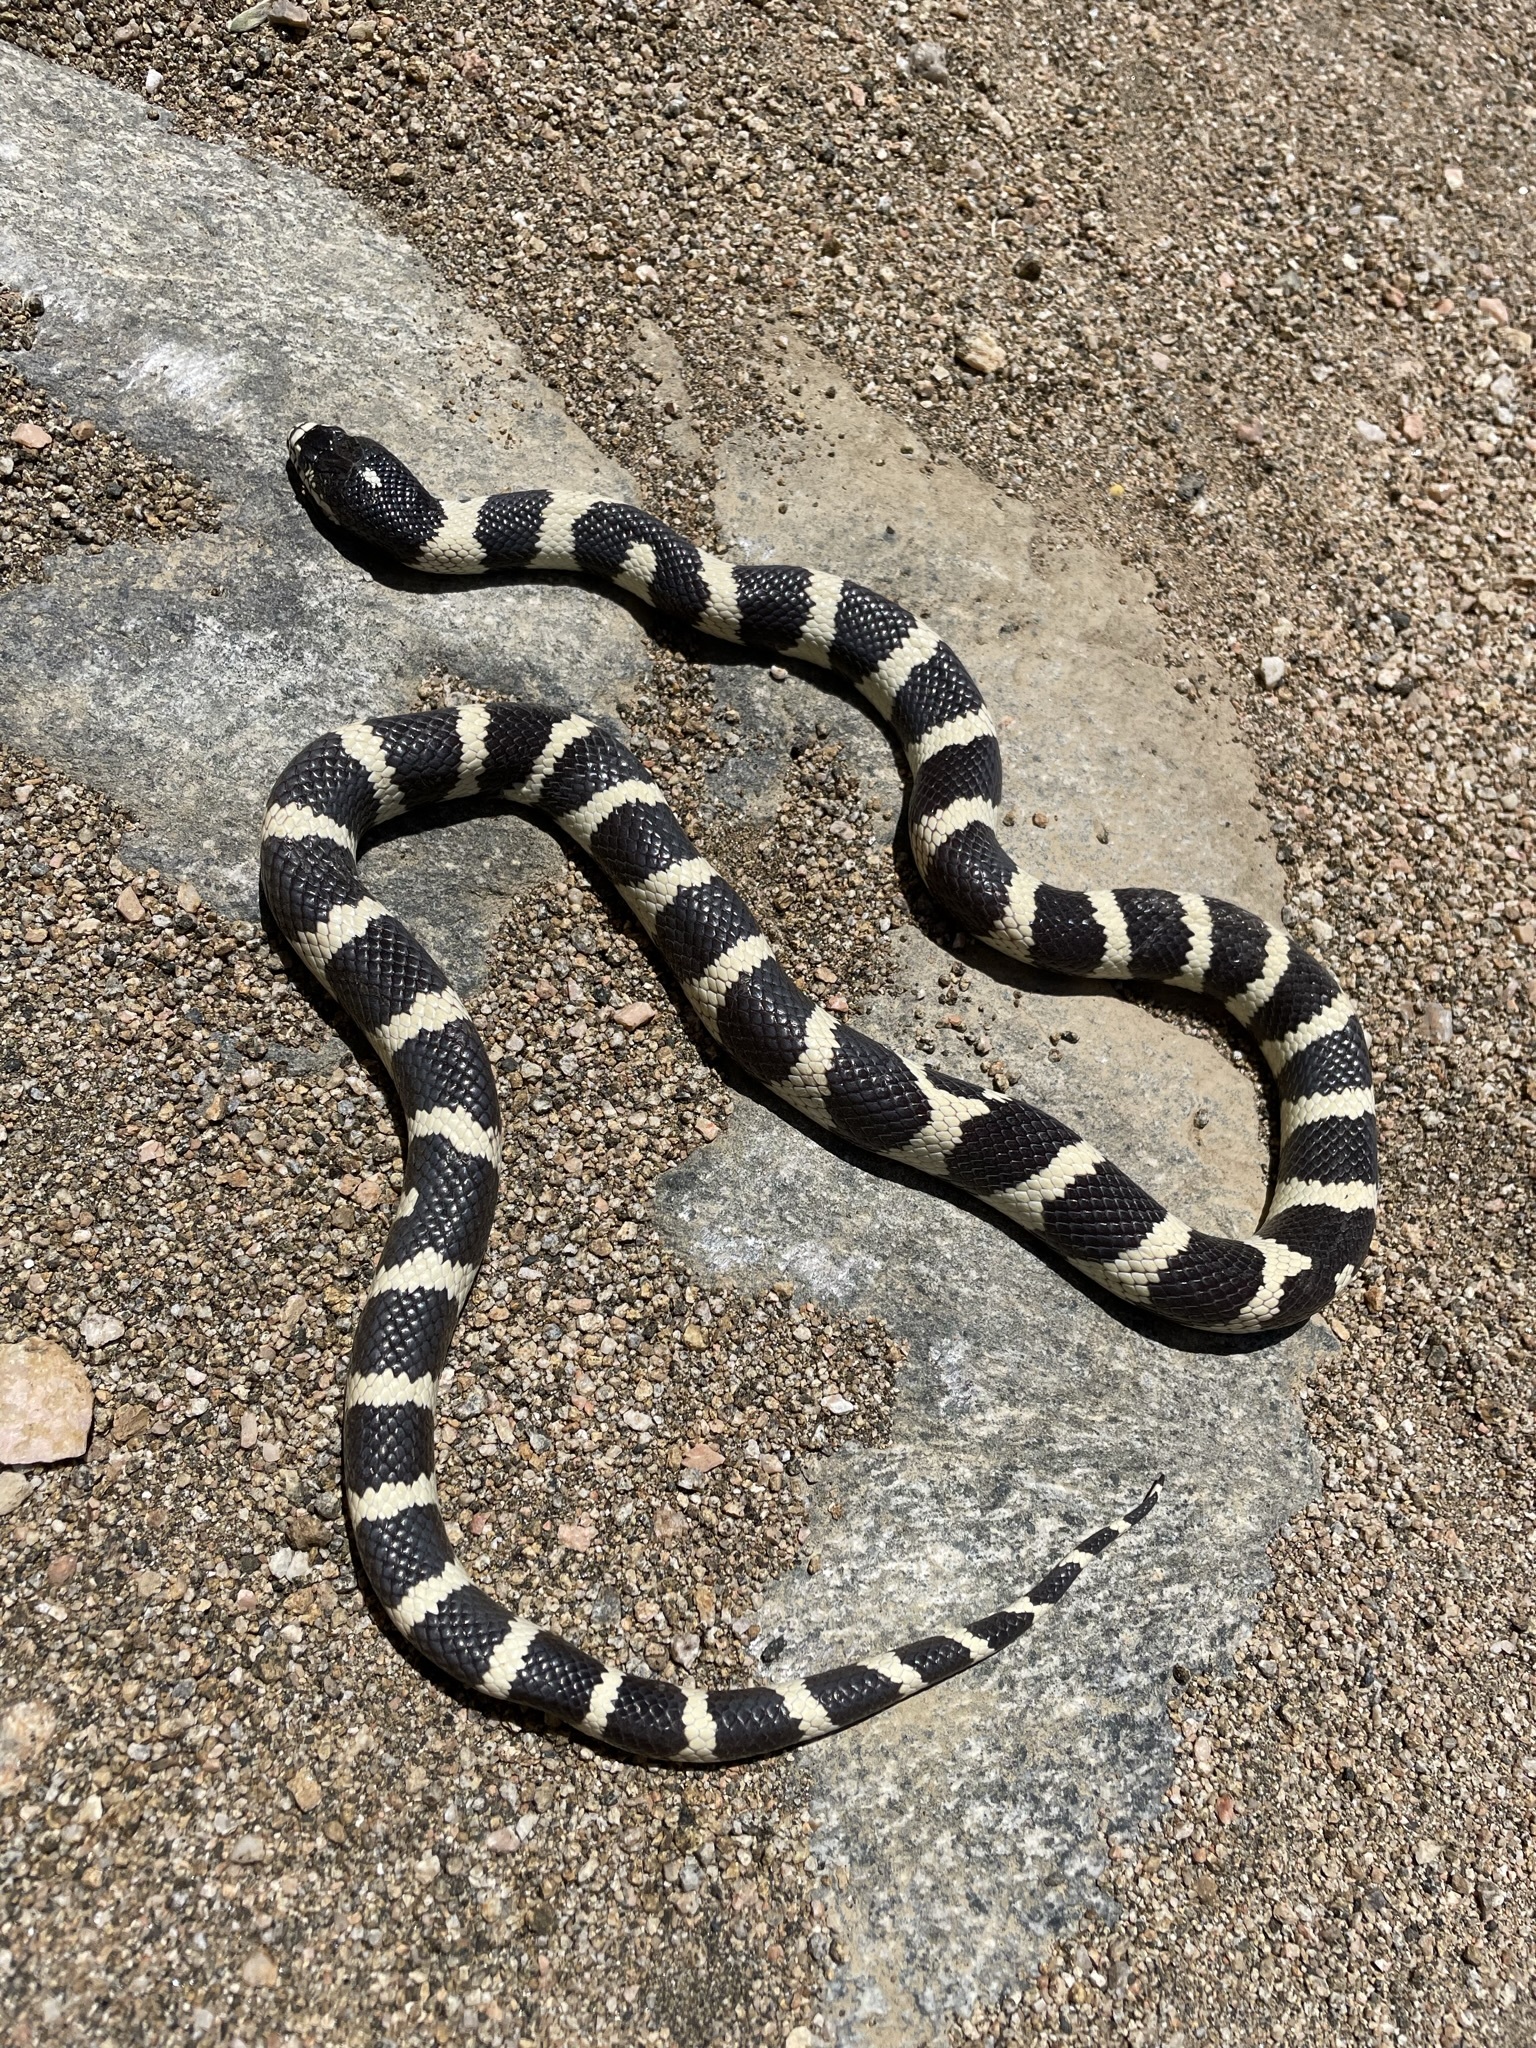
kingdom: Animalia
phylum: Chordata
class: Squamata
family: Colubridae
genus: Lampropeltis
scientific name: Lampropeltis californiae
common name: California kingsnake
